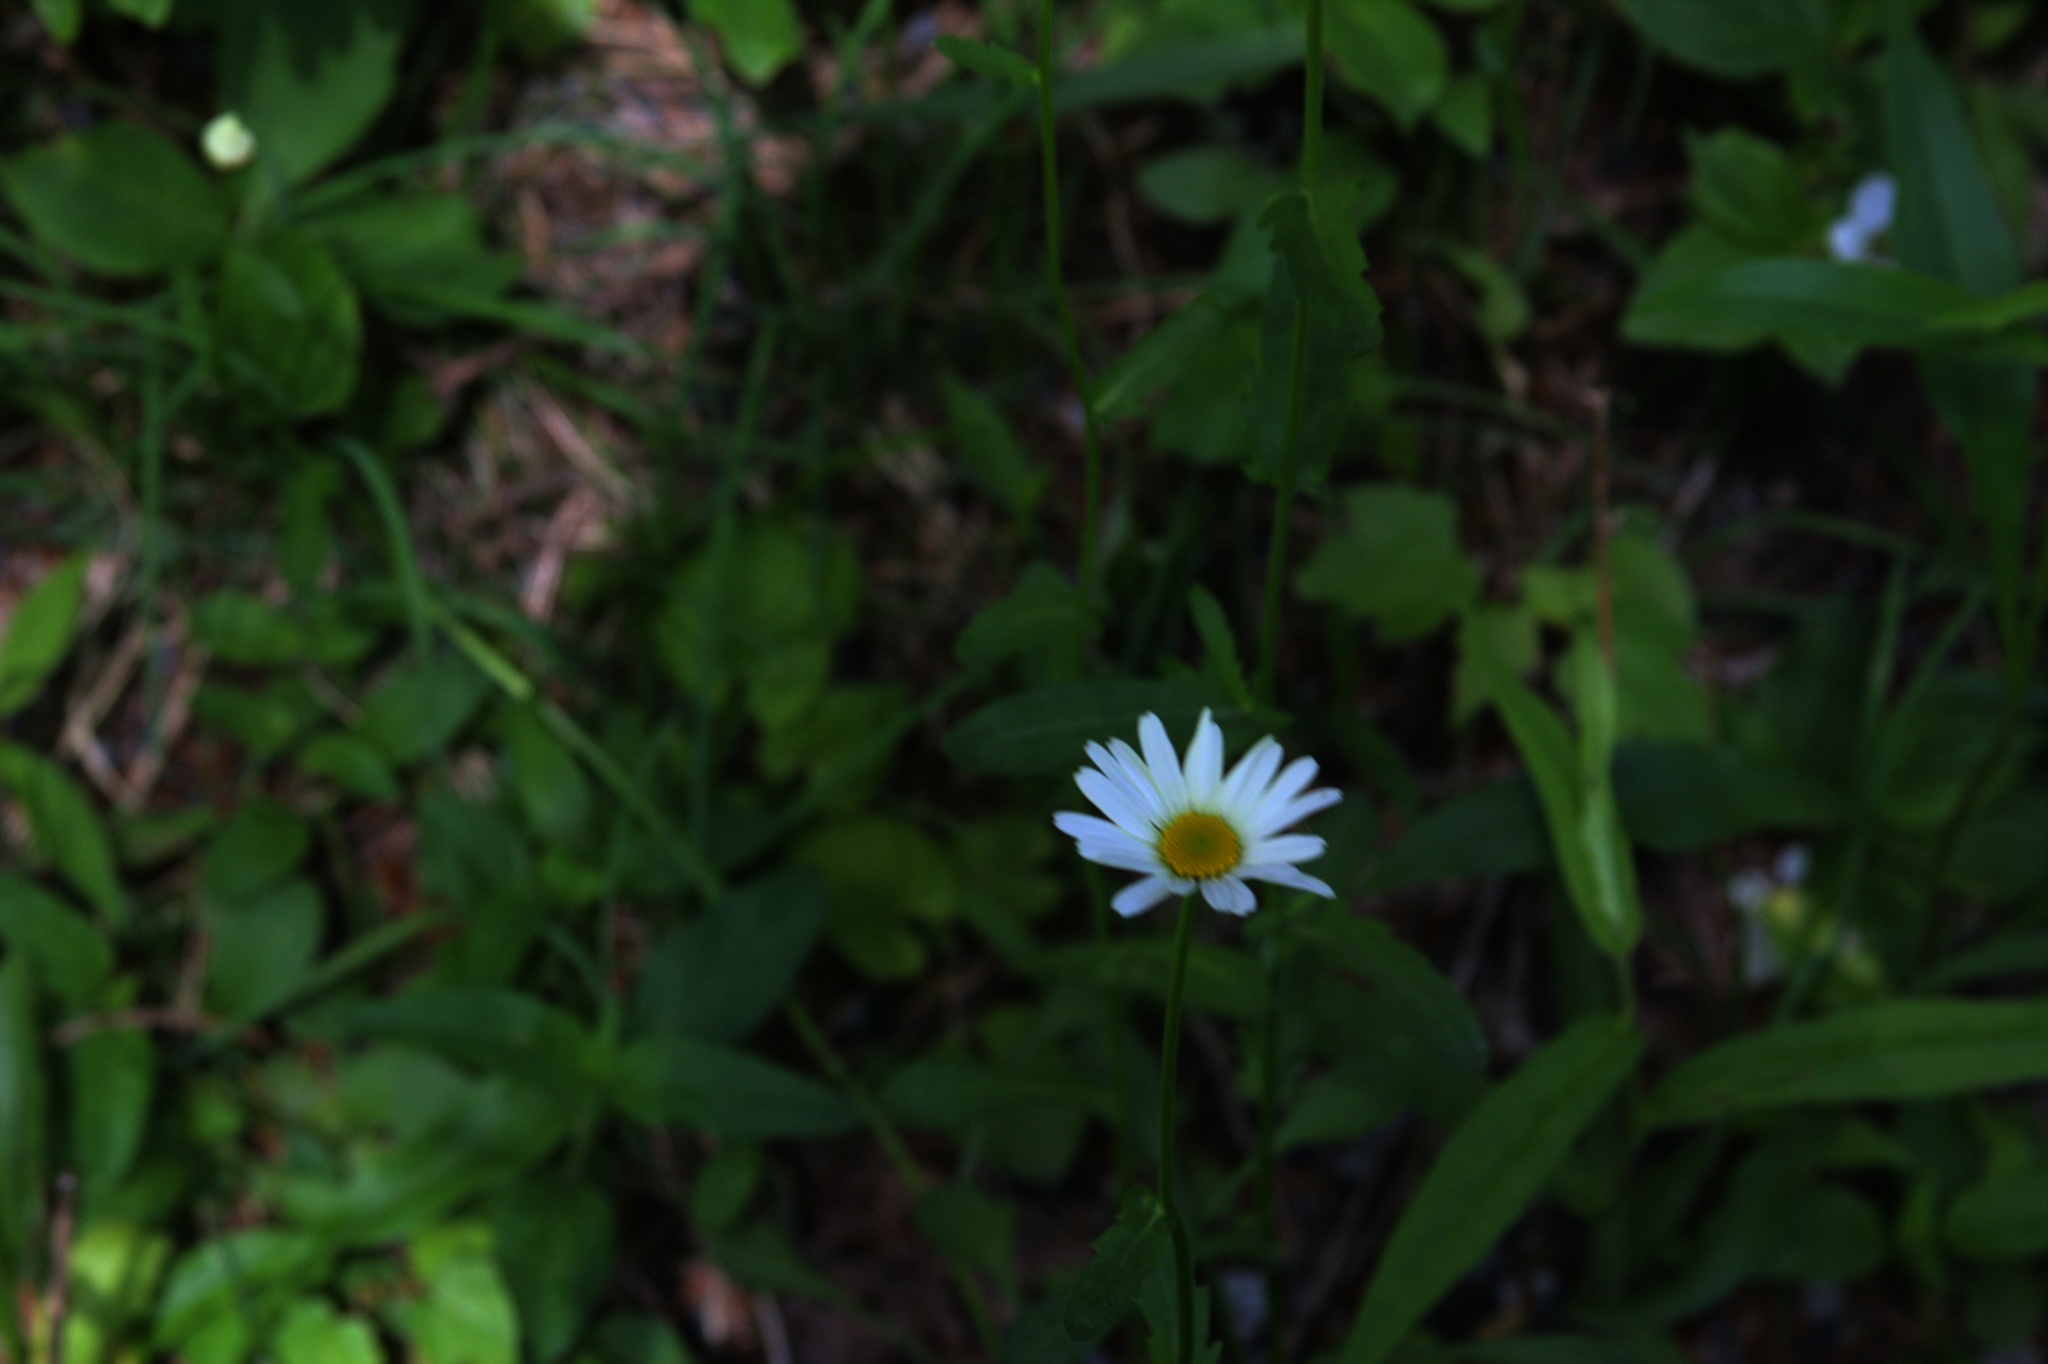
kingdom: Plantae
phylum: Tracheophyta
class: Magnoliopsida
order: Asterales
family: Asteraceae
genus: Leucanthemum
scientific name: Leucanthemum vulgare
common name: Oxeye daisy
